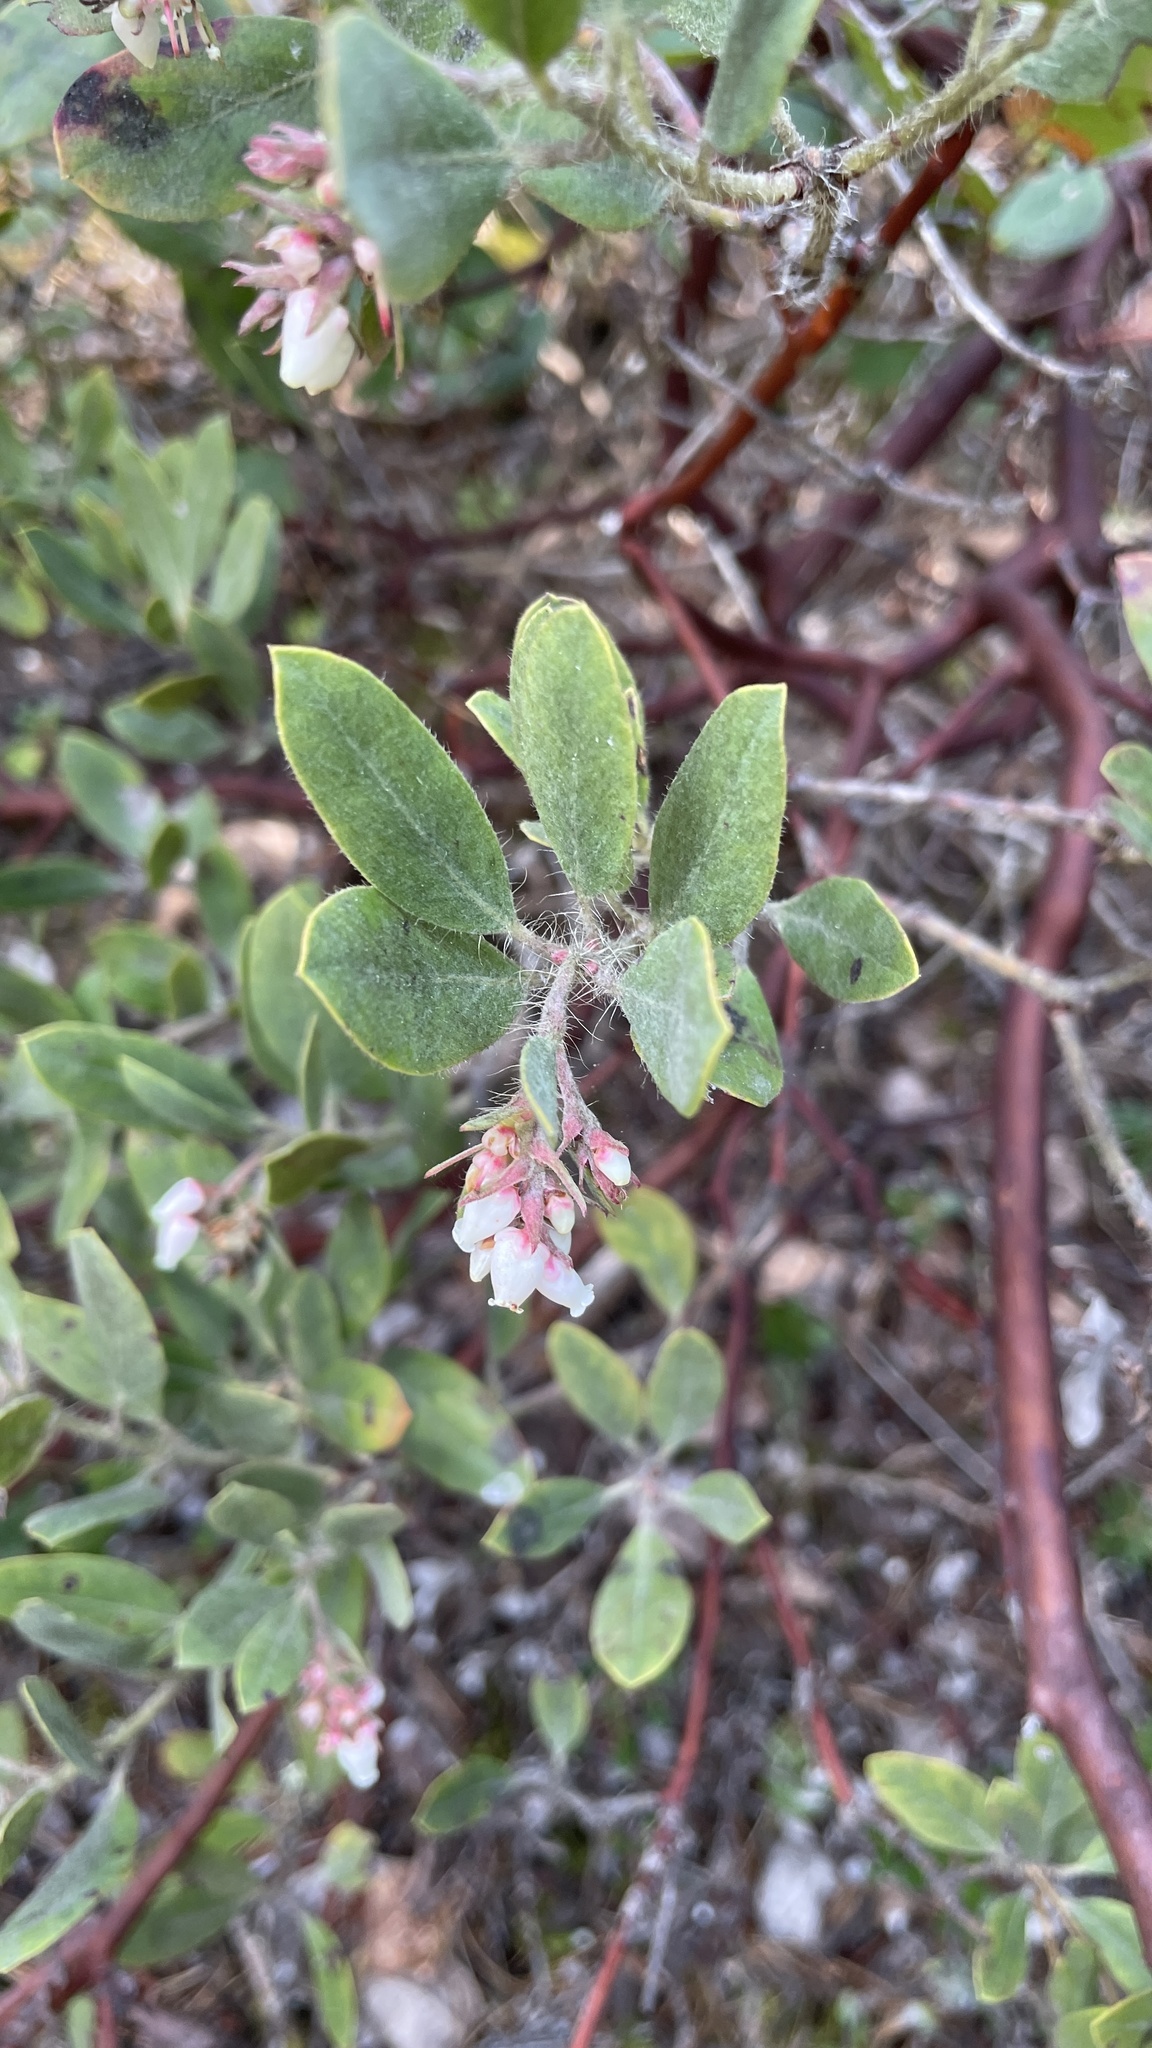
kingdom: Plantae
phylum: Tracheophyta
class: Magnoliopsida
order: Ericales
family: Ericaceae
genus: Arctostaphylos
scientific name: Arctostaphylos columbiana
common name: Bristly bearberry
